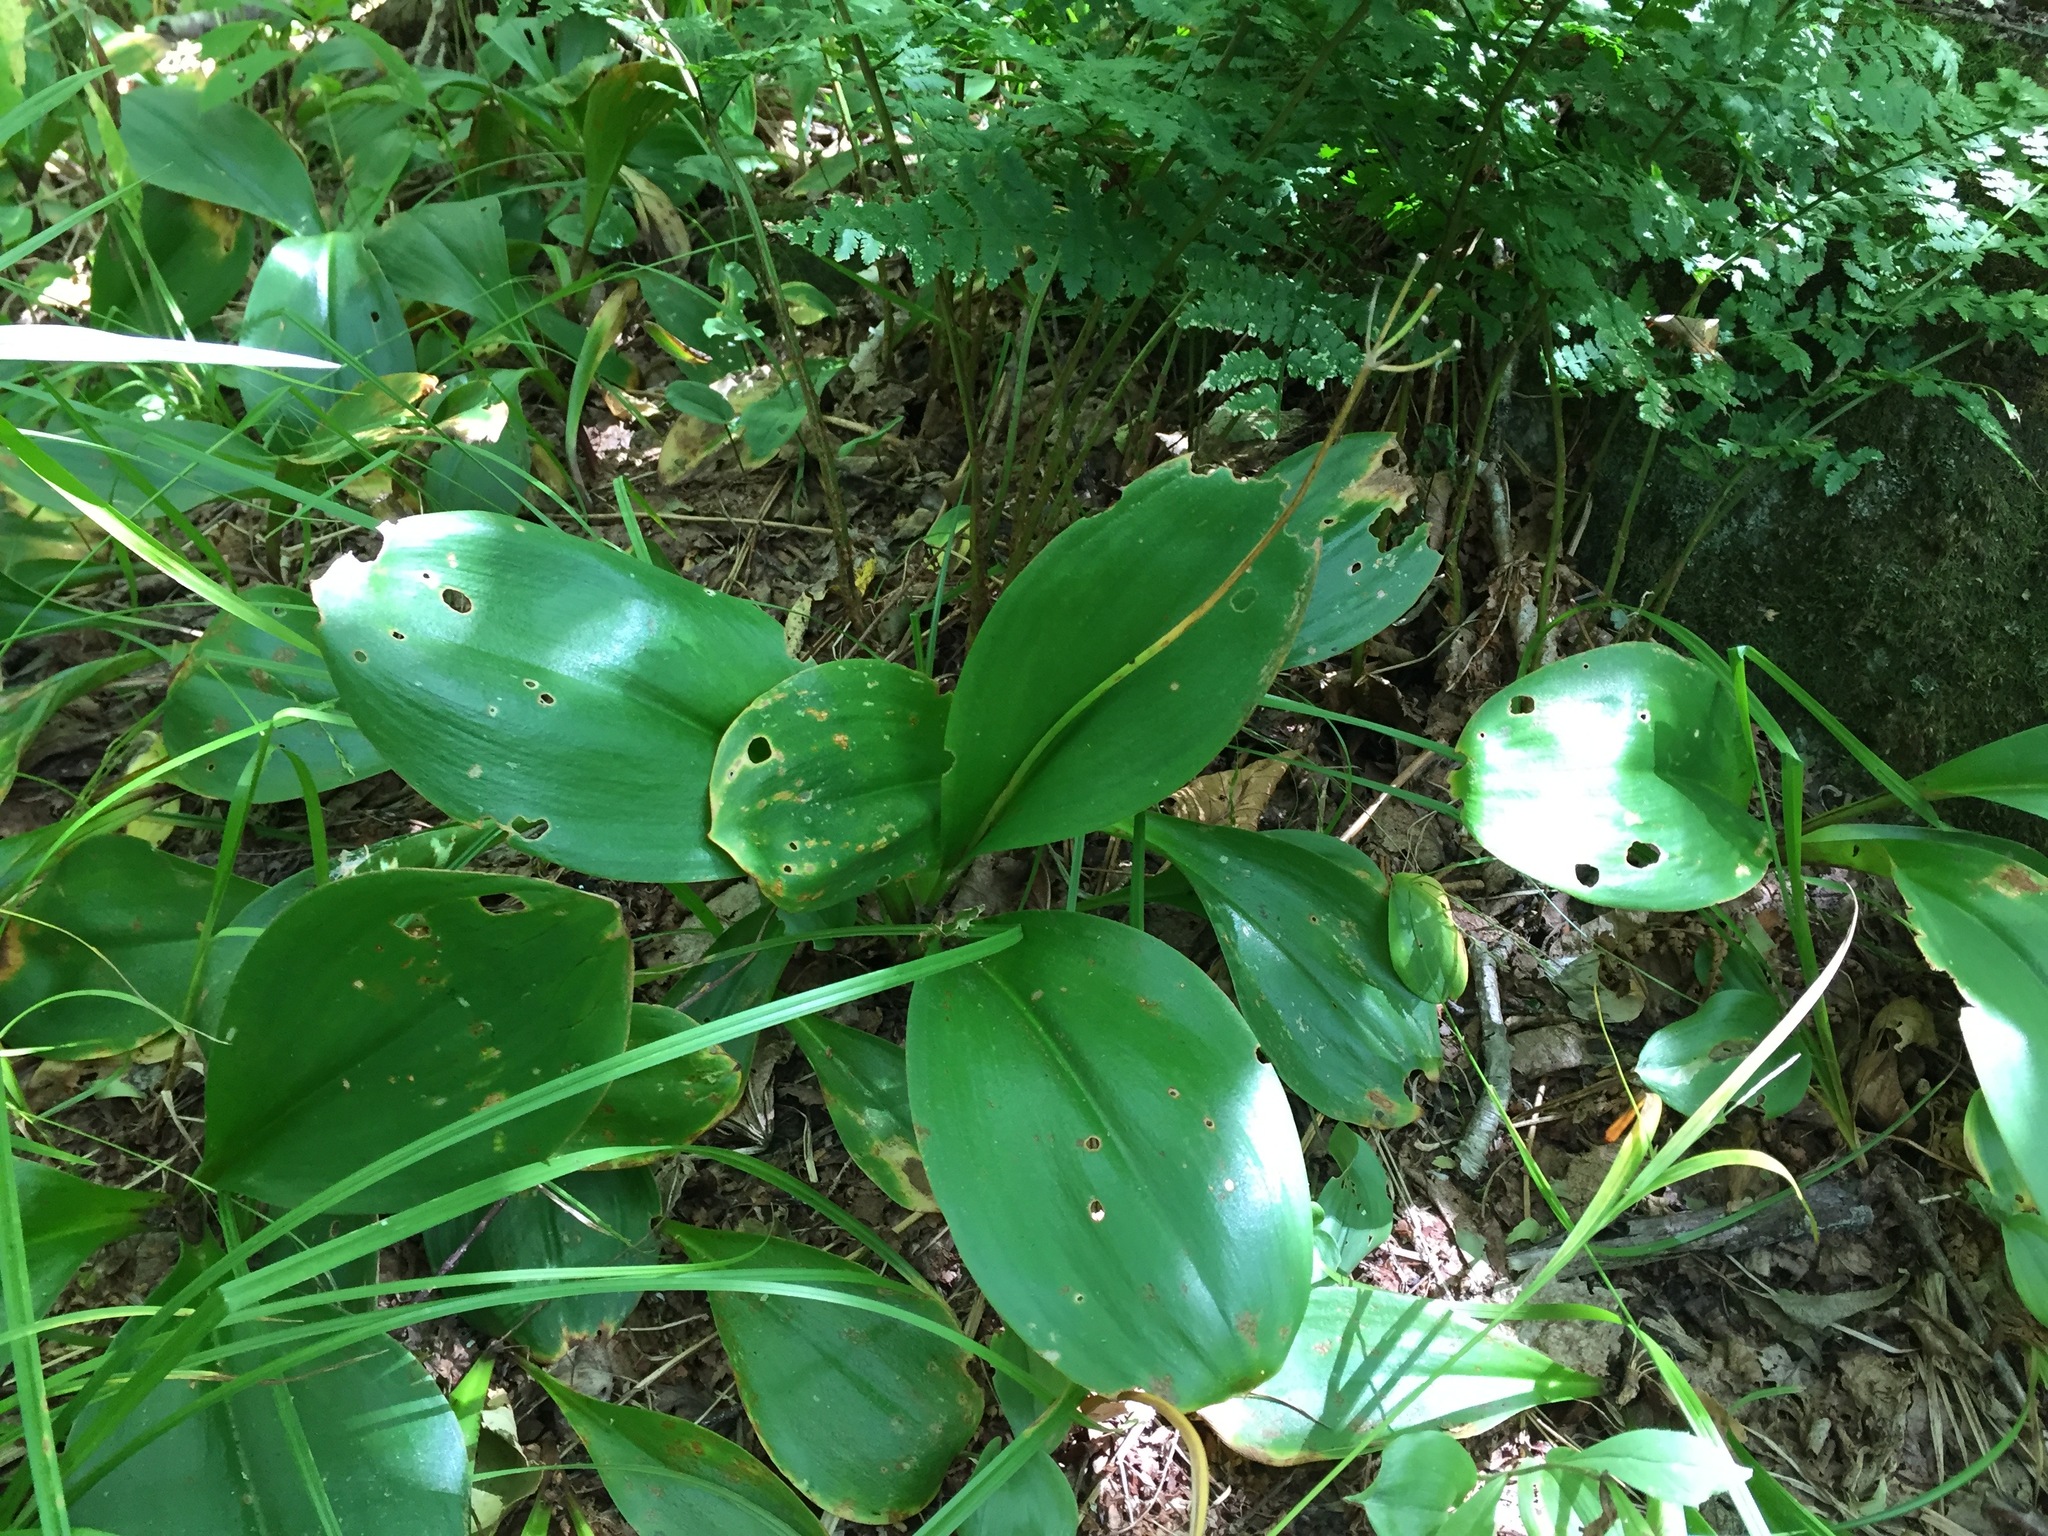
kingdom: Plantae
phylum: Tracheophyta
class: Liliopsida
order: Liliales
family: Liliaceae
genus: Clintonia
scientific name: Clintonia borealis
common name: Yellow clintonia
